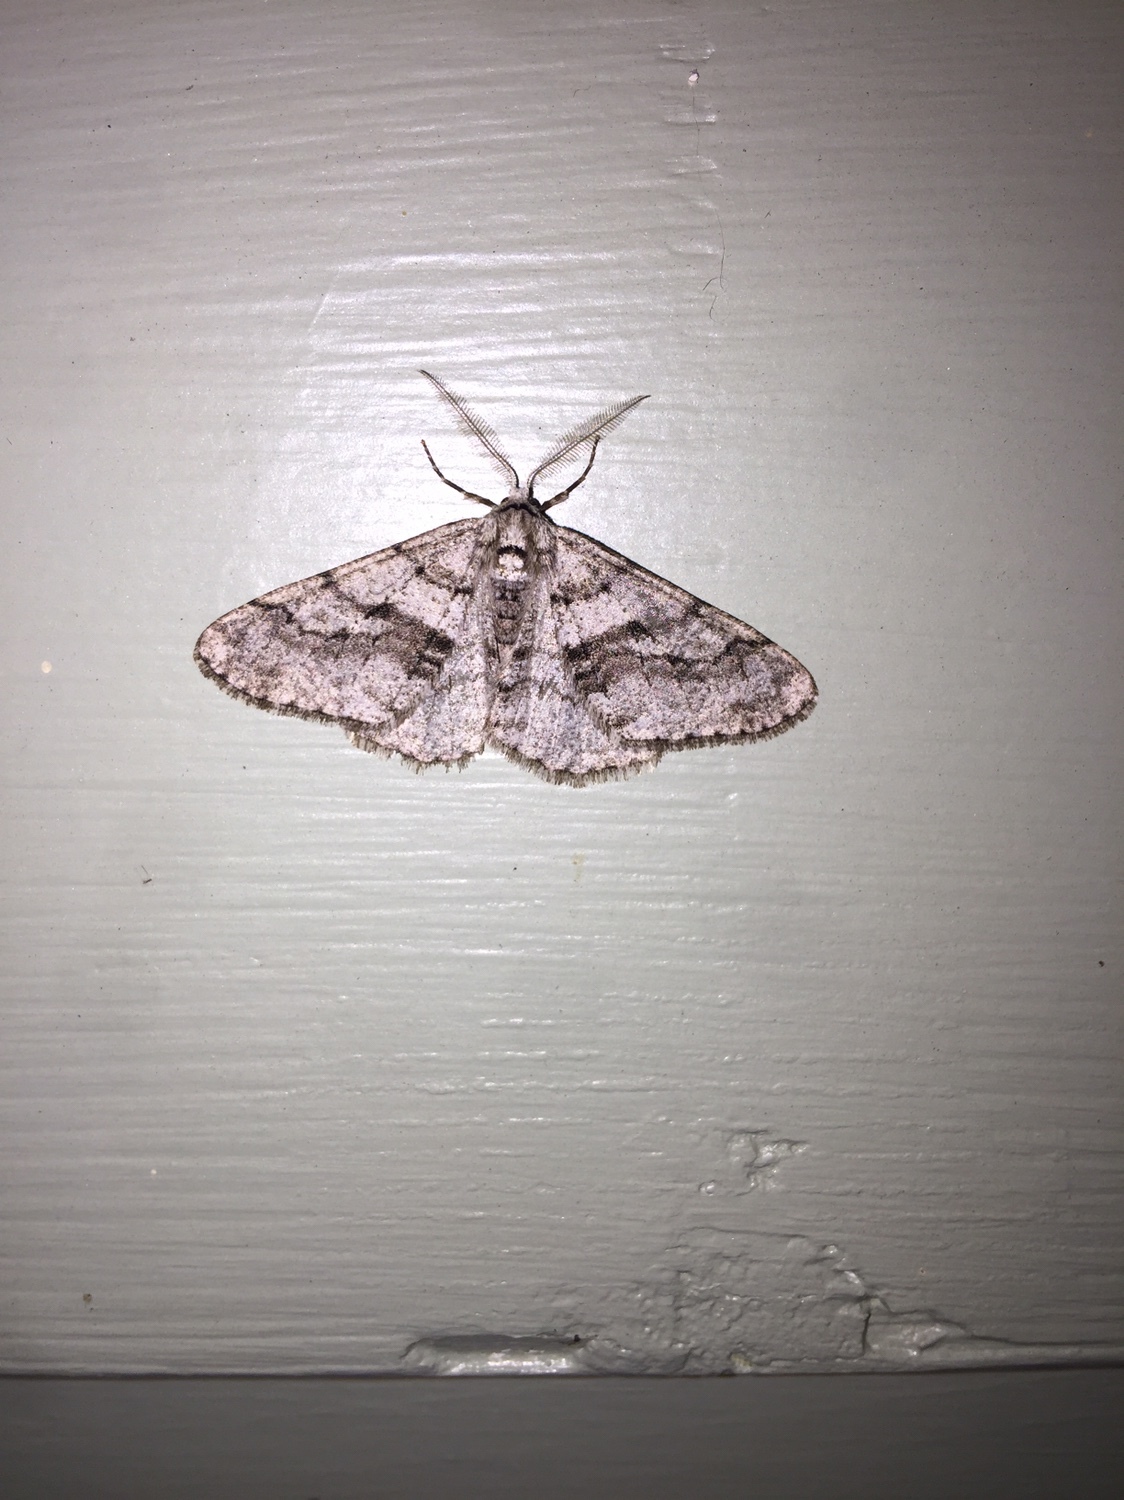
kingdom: Animalia
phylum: Arthropoda
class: Insecta
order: Lepidoptera
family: Geometridae
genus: Phigalia
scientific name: Phigalia titea
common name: Spiny looper
